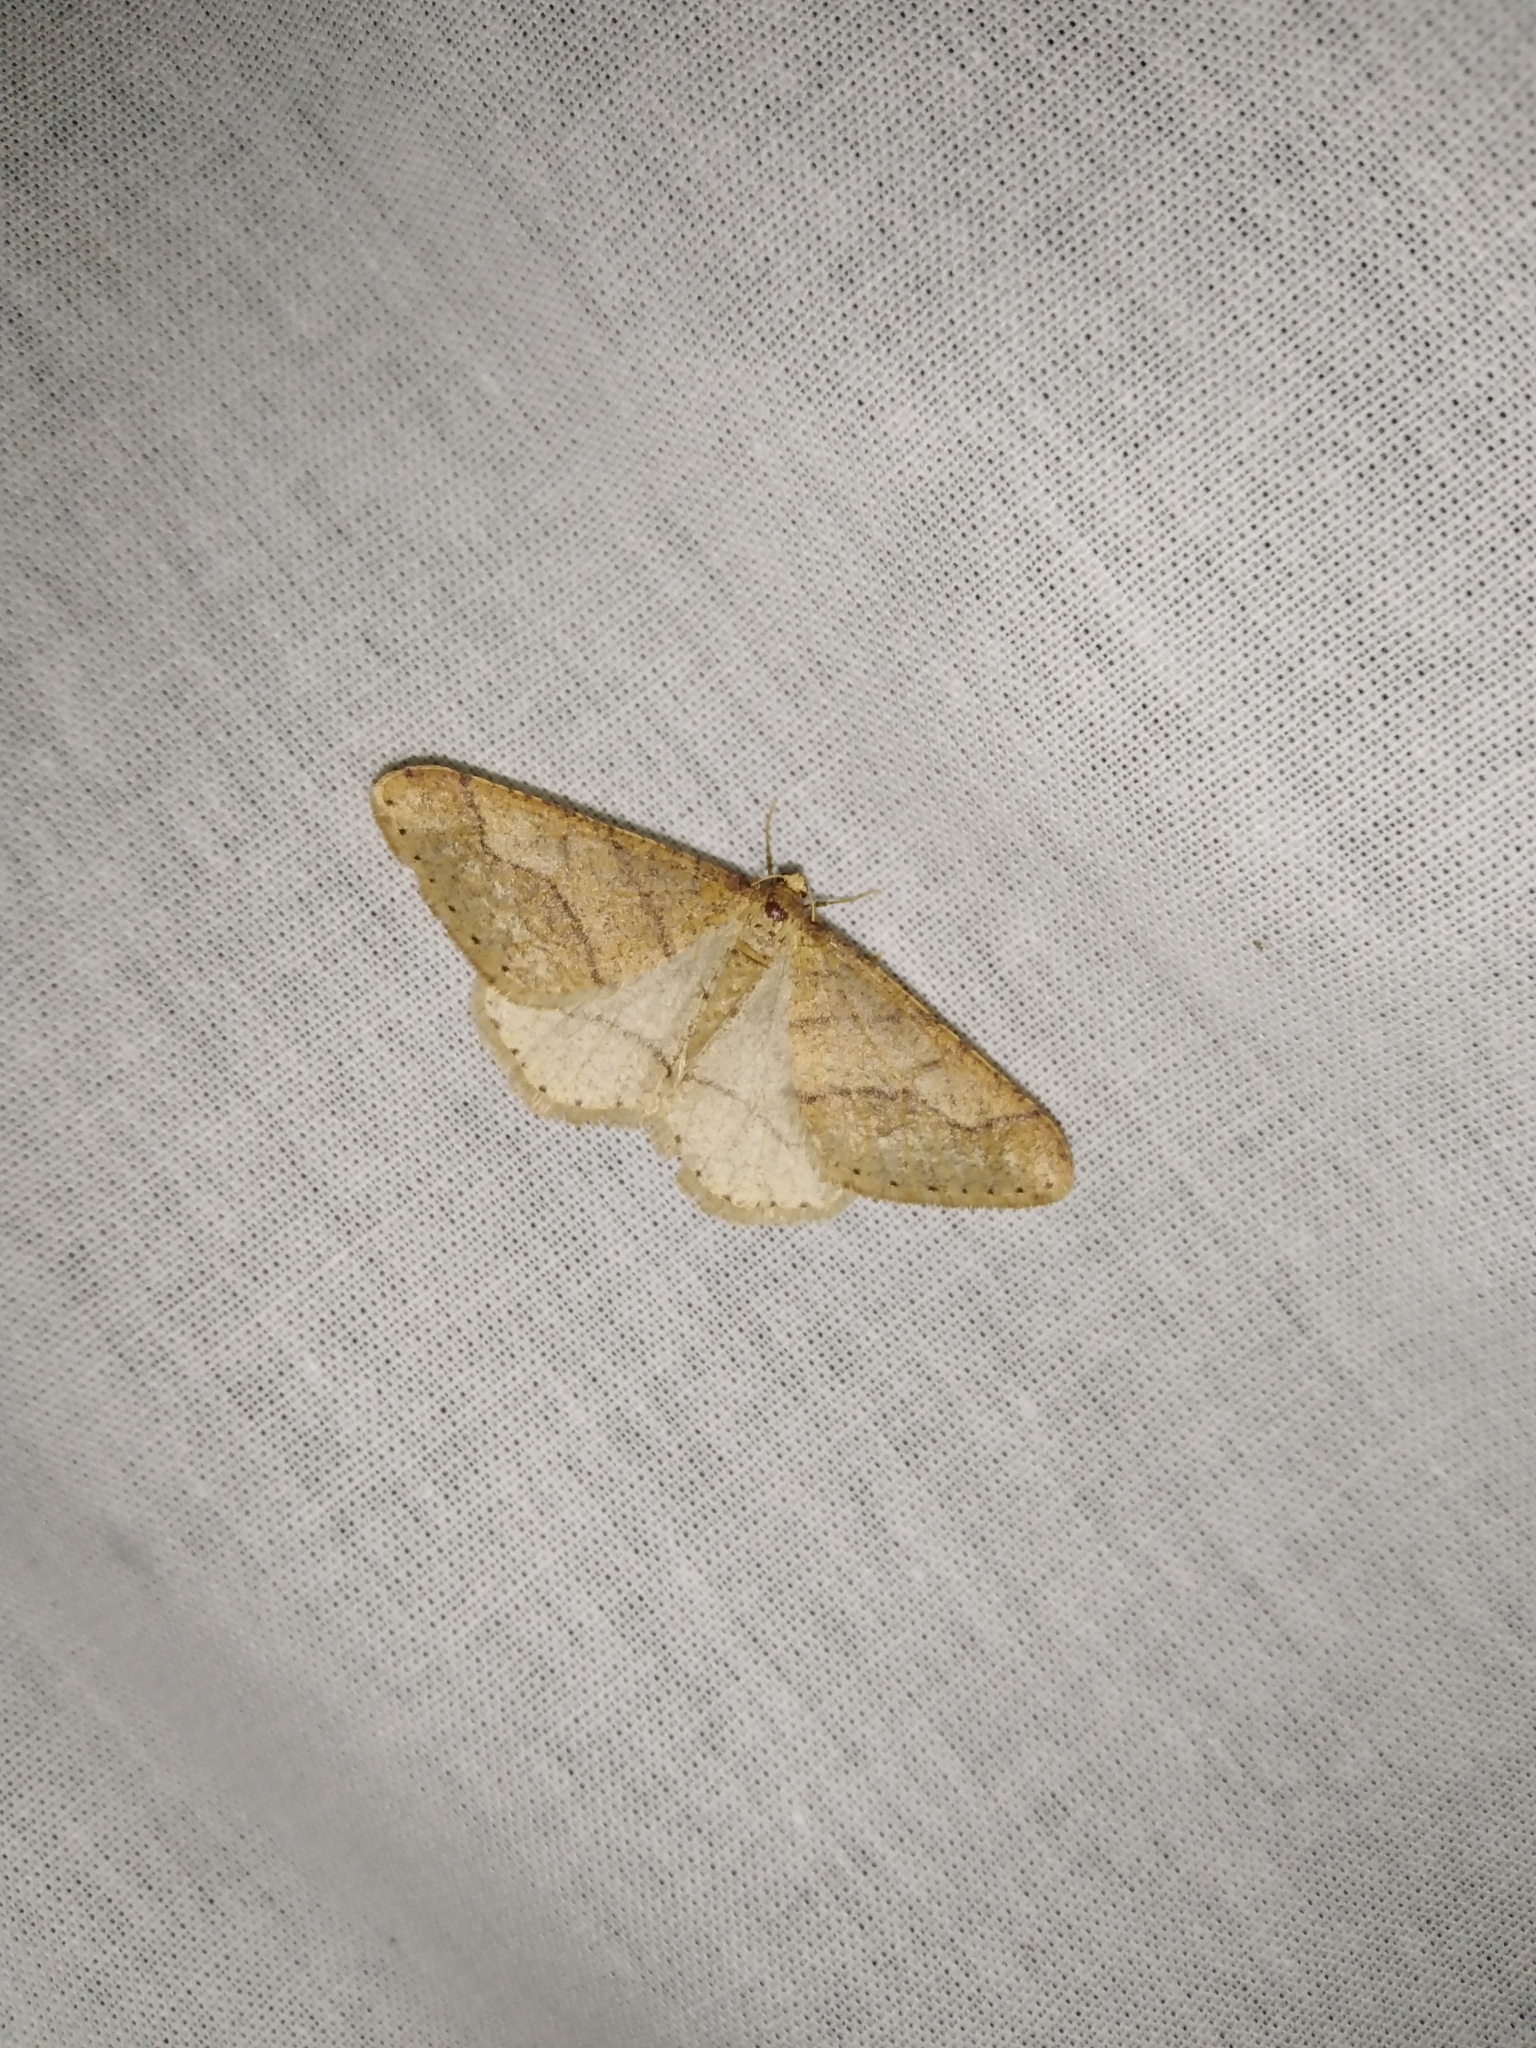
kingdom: Animalia
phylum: Arthropoda
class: Insecta
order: Lepidoptera
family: Geometridae
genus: Agriopis
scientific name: Agriopis marginaria
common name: Dotted border
